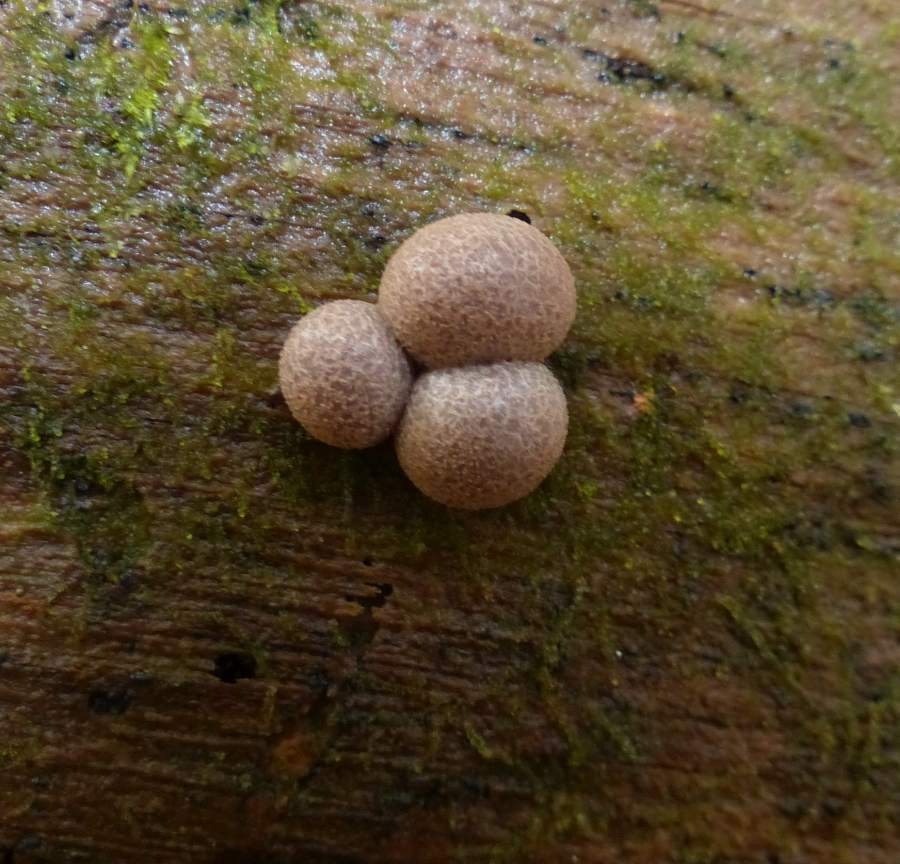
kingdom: Protozoa
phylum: Mycetozoa
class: Myxomycetes
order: Cribrariales
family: Tubiferaceae
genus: Lycogala
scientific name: Lycogala epidendrum
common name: Wolf's milk
